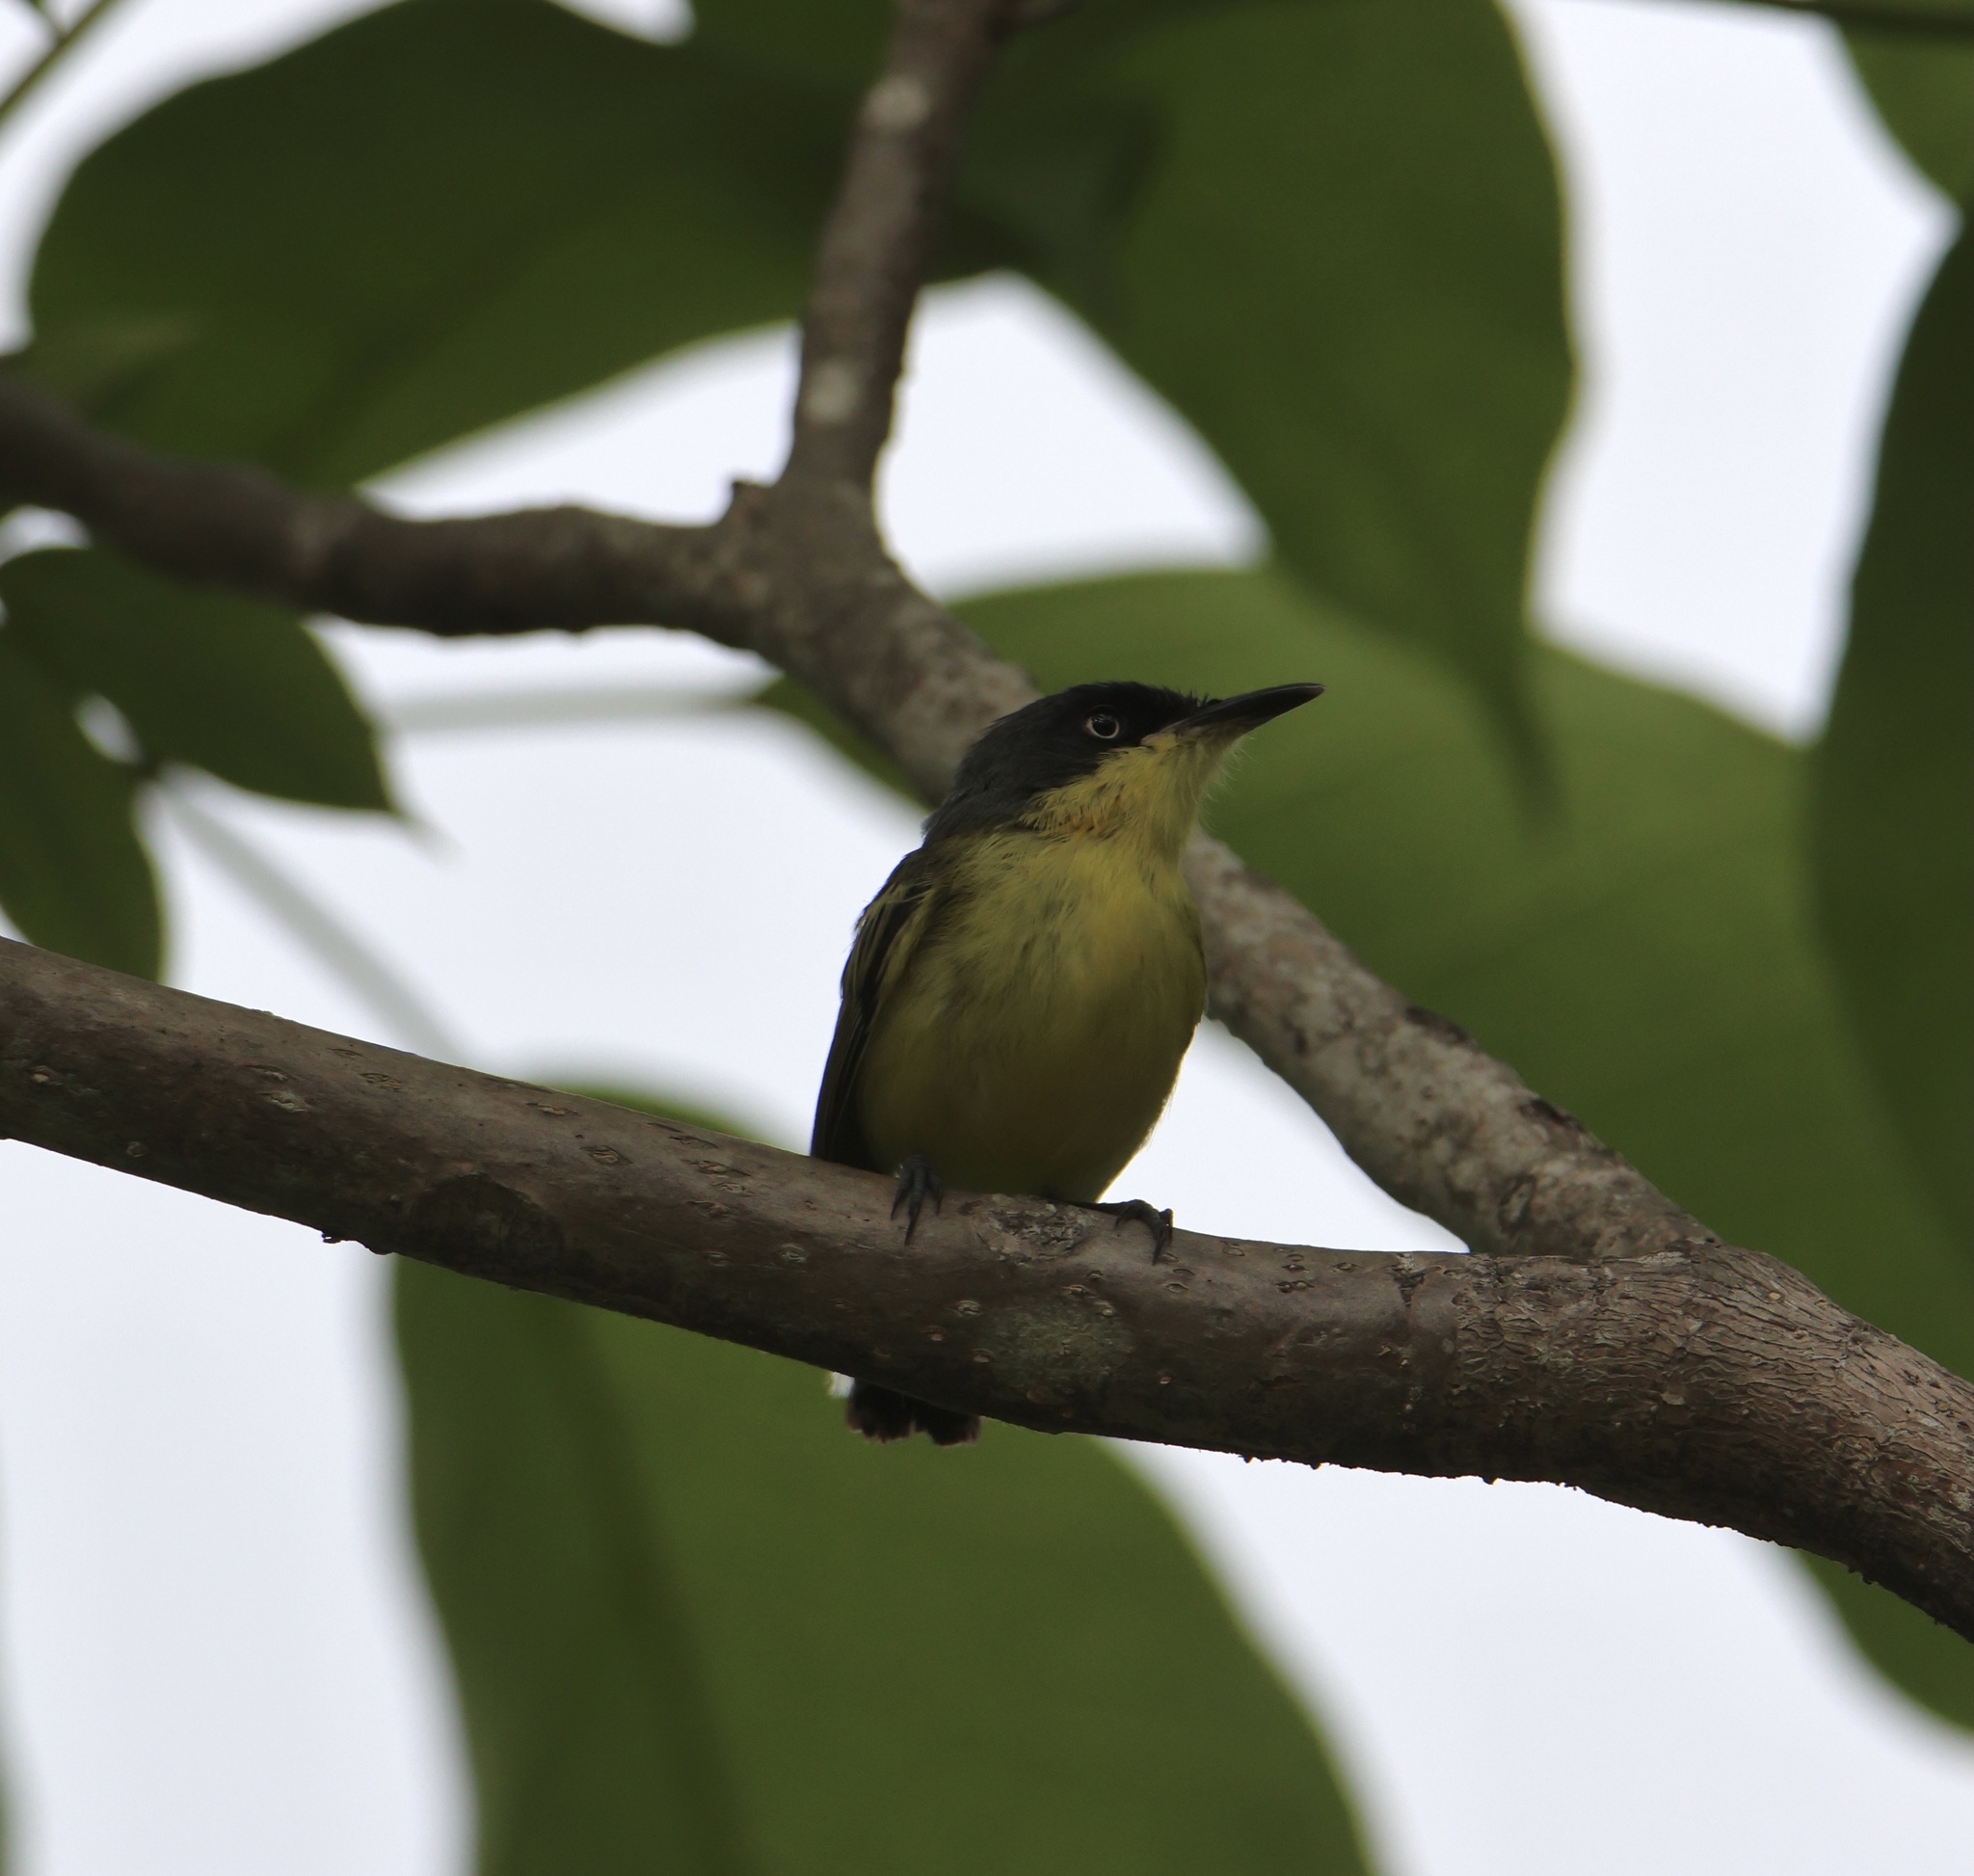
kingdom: Animalia
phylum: Chordata
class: Aves
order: Passeriformes
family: Tyrannidae
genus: Todirostrum
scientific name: Todirostrum cinereum
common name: Common tody-flycatcher
